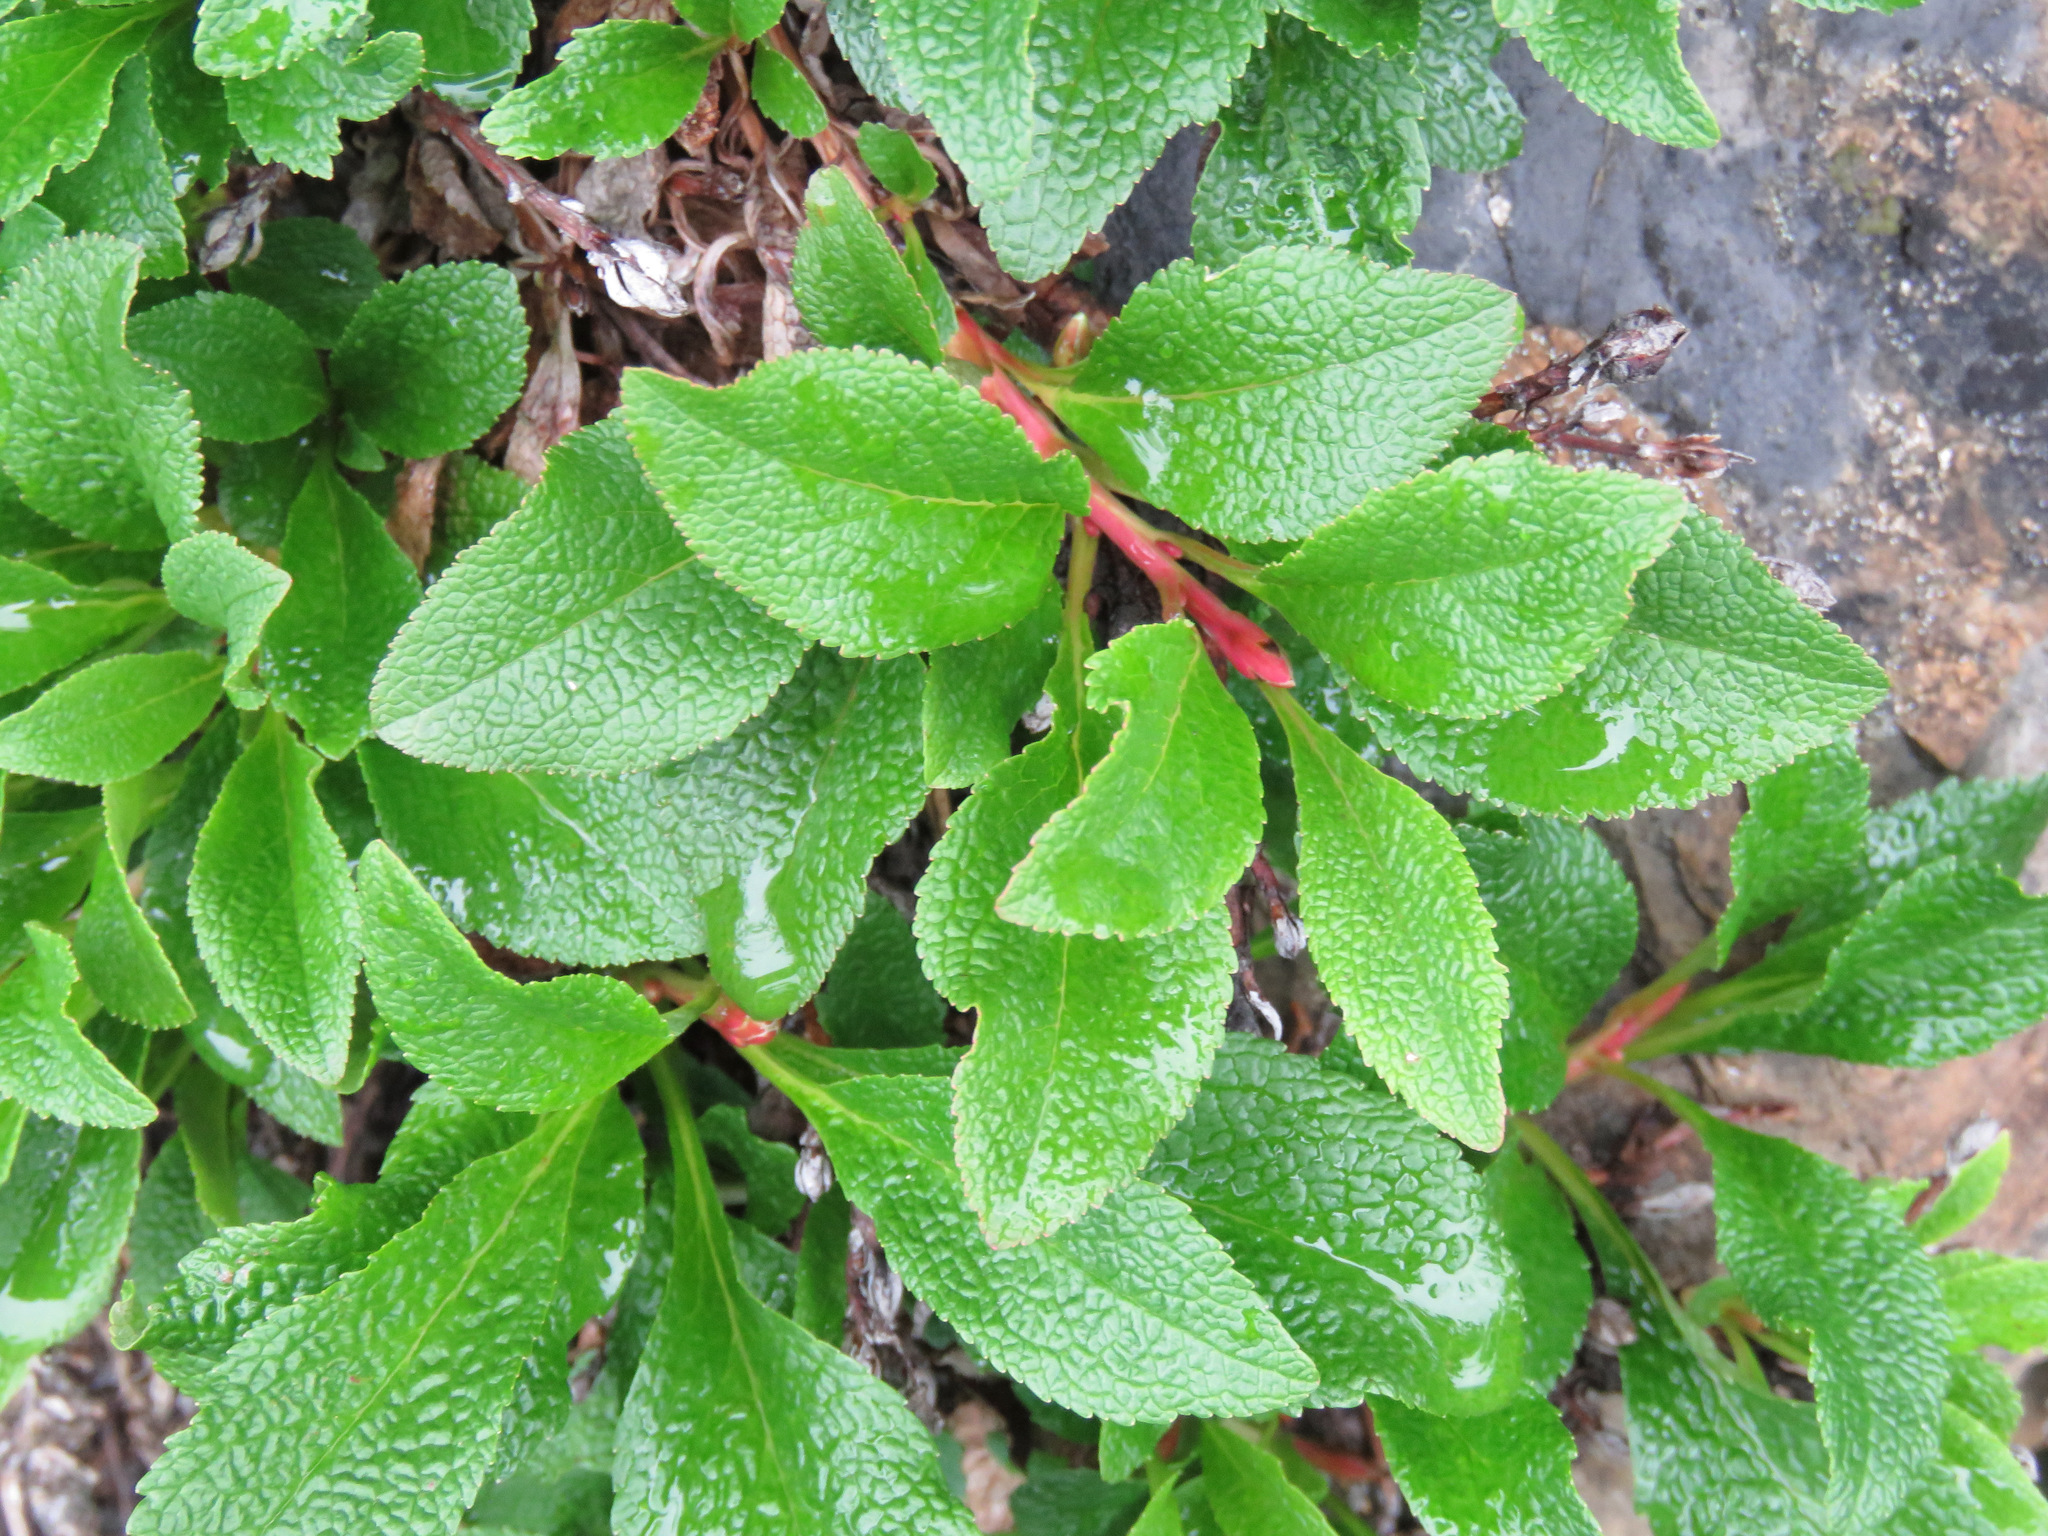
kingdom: Plantae
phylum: Tracheophyta
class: Magnoliopsida
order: Ericales
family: Ericaceae
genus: Arctostaphylos
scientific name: Arctostaphylos rubra
